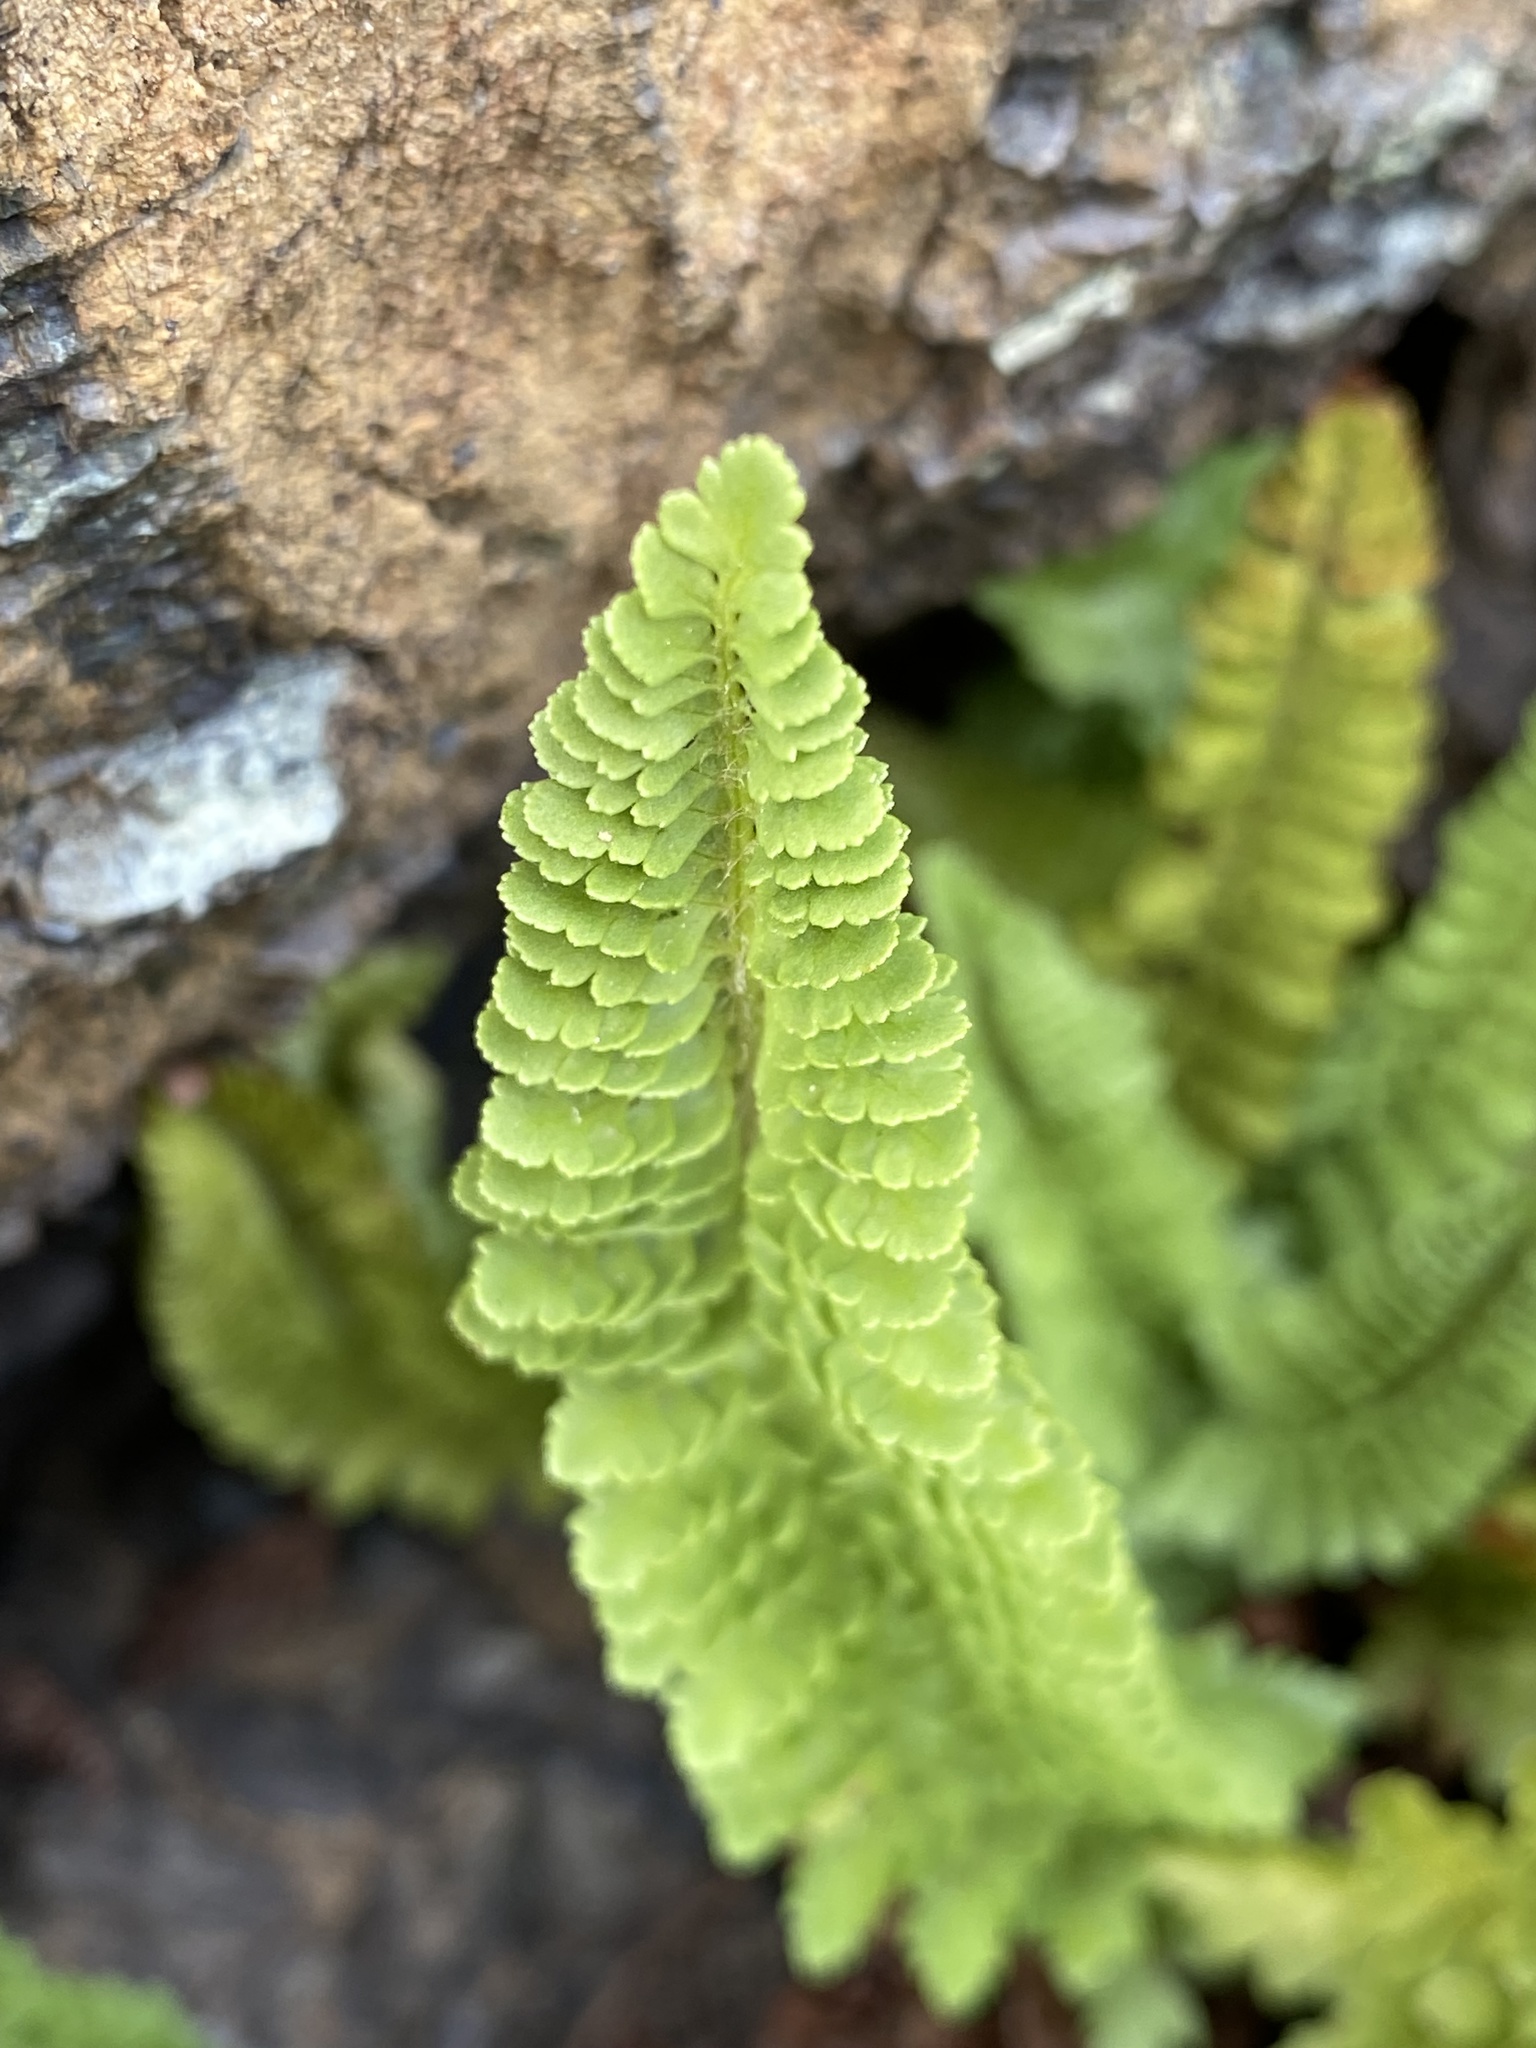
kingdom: Plantae
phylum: Tracheophyta
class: Polypodiopsida
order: Polypodiales
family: Dryopteridaceae
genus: Polystichum
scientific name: Polystichum lemmonii
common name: Lemmon's holly fern
